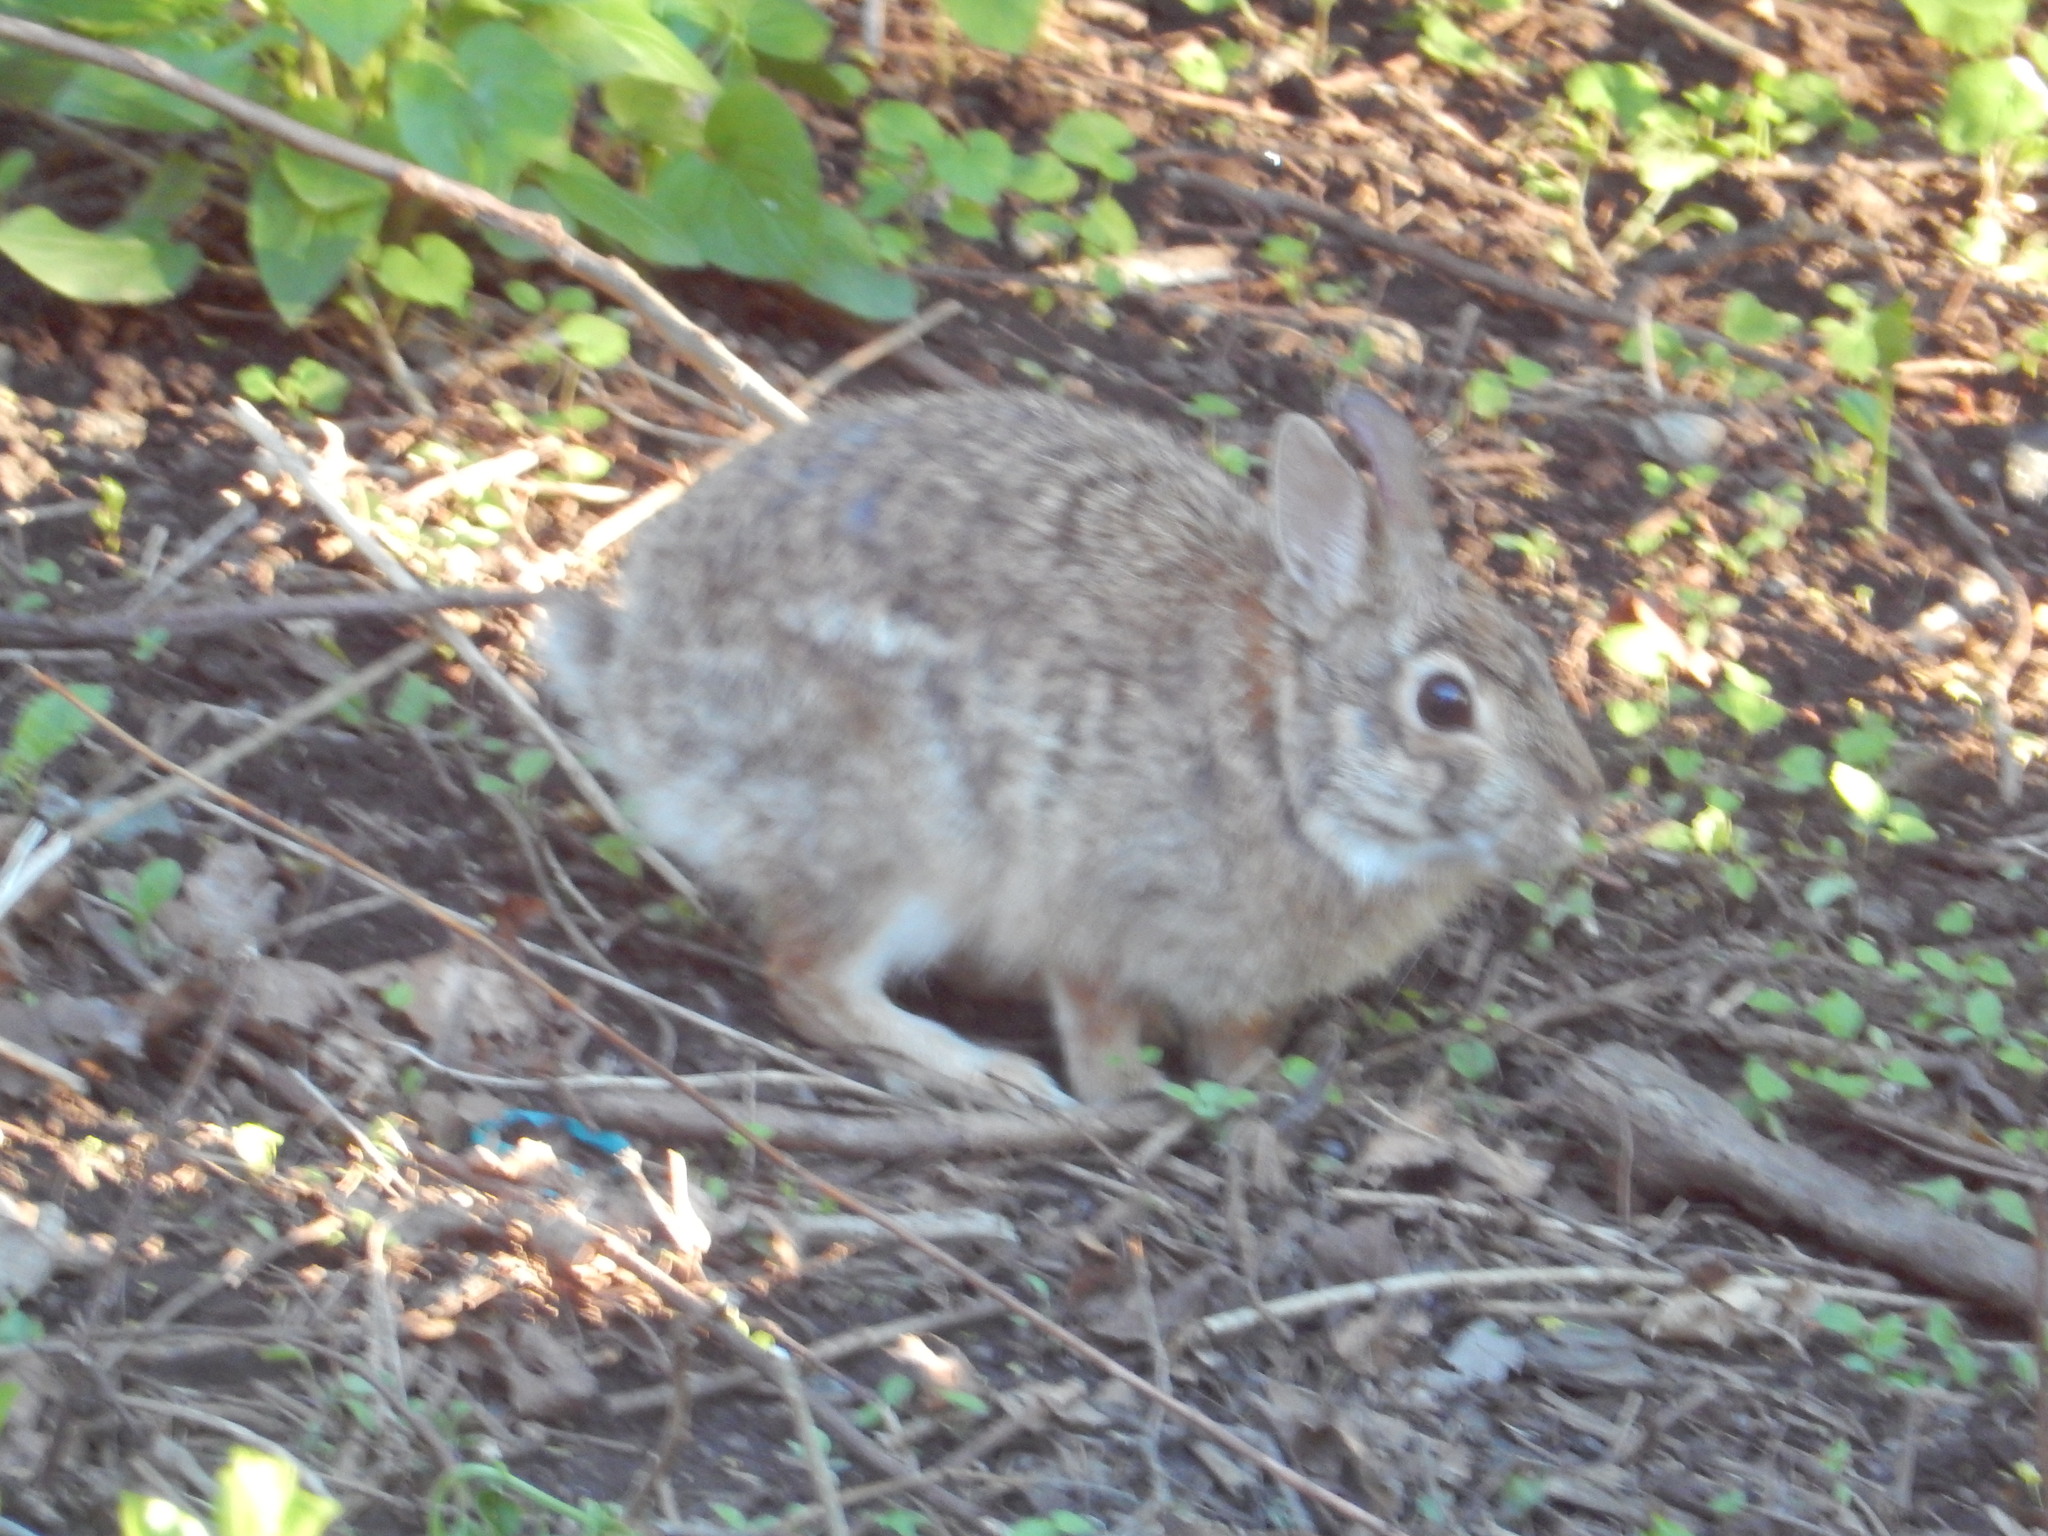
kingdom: Animalia
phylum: Chordata
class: Mammalia
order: Lagomorpha
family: Leporidae
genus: Sylvilagus
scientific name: Sylvilagus floridanus
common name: Eastern cottontail
